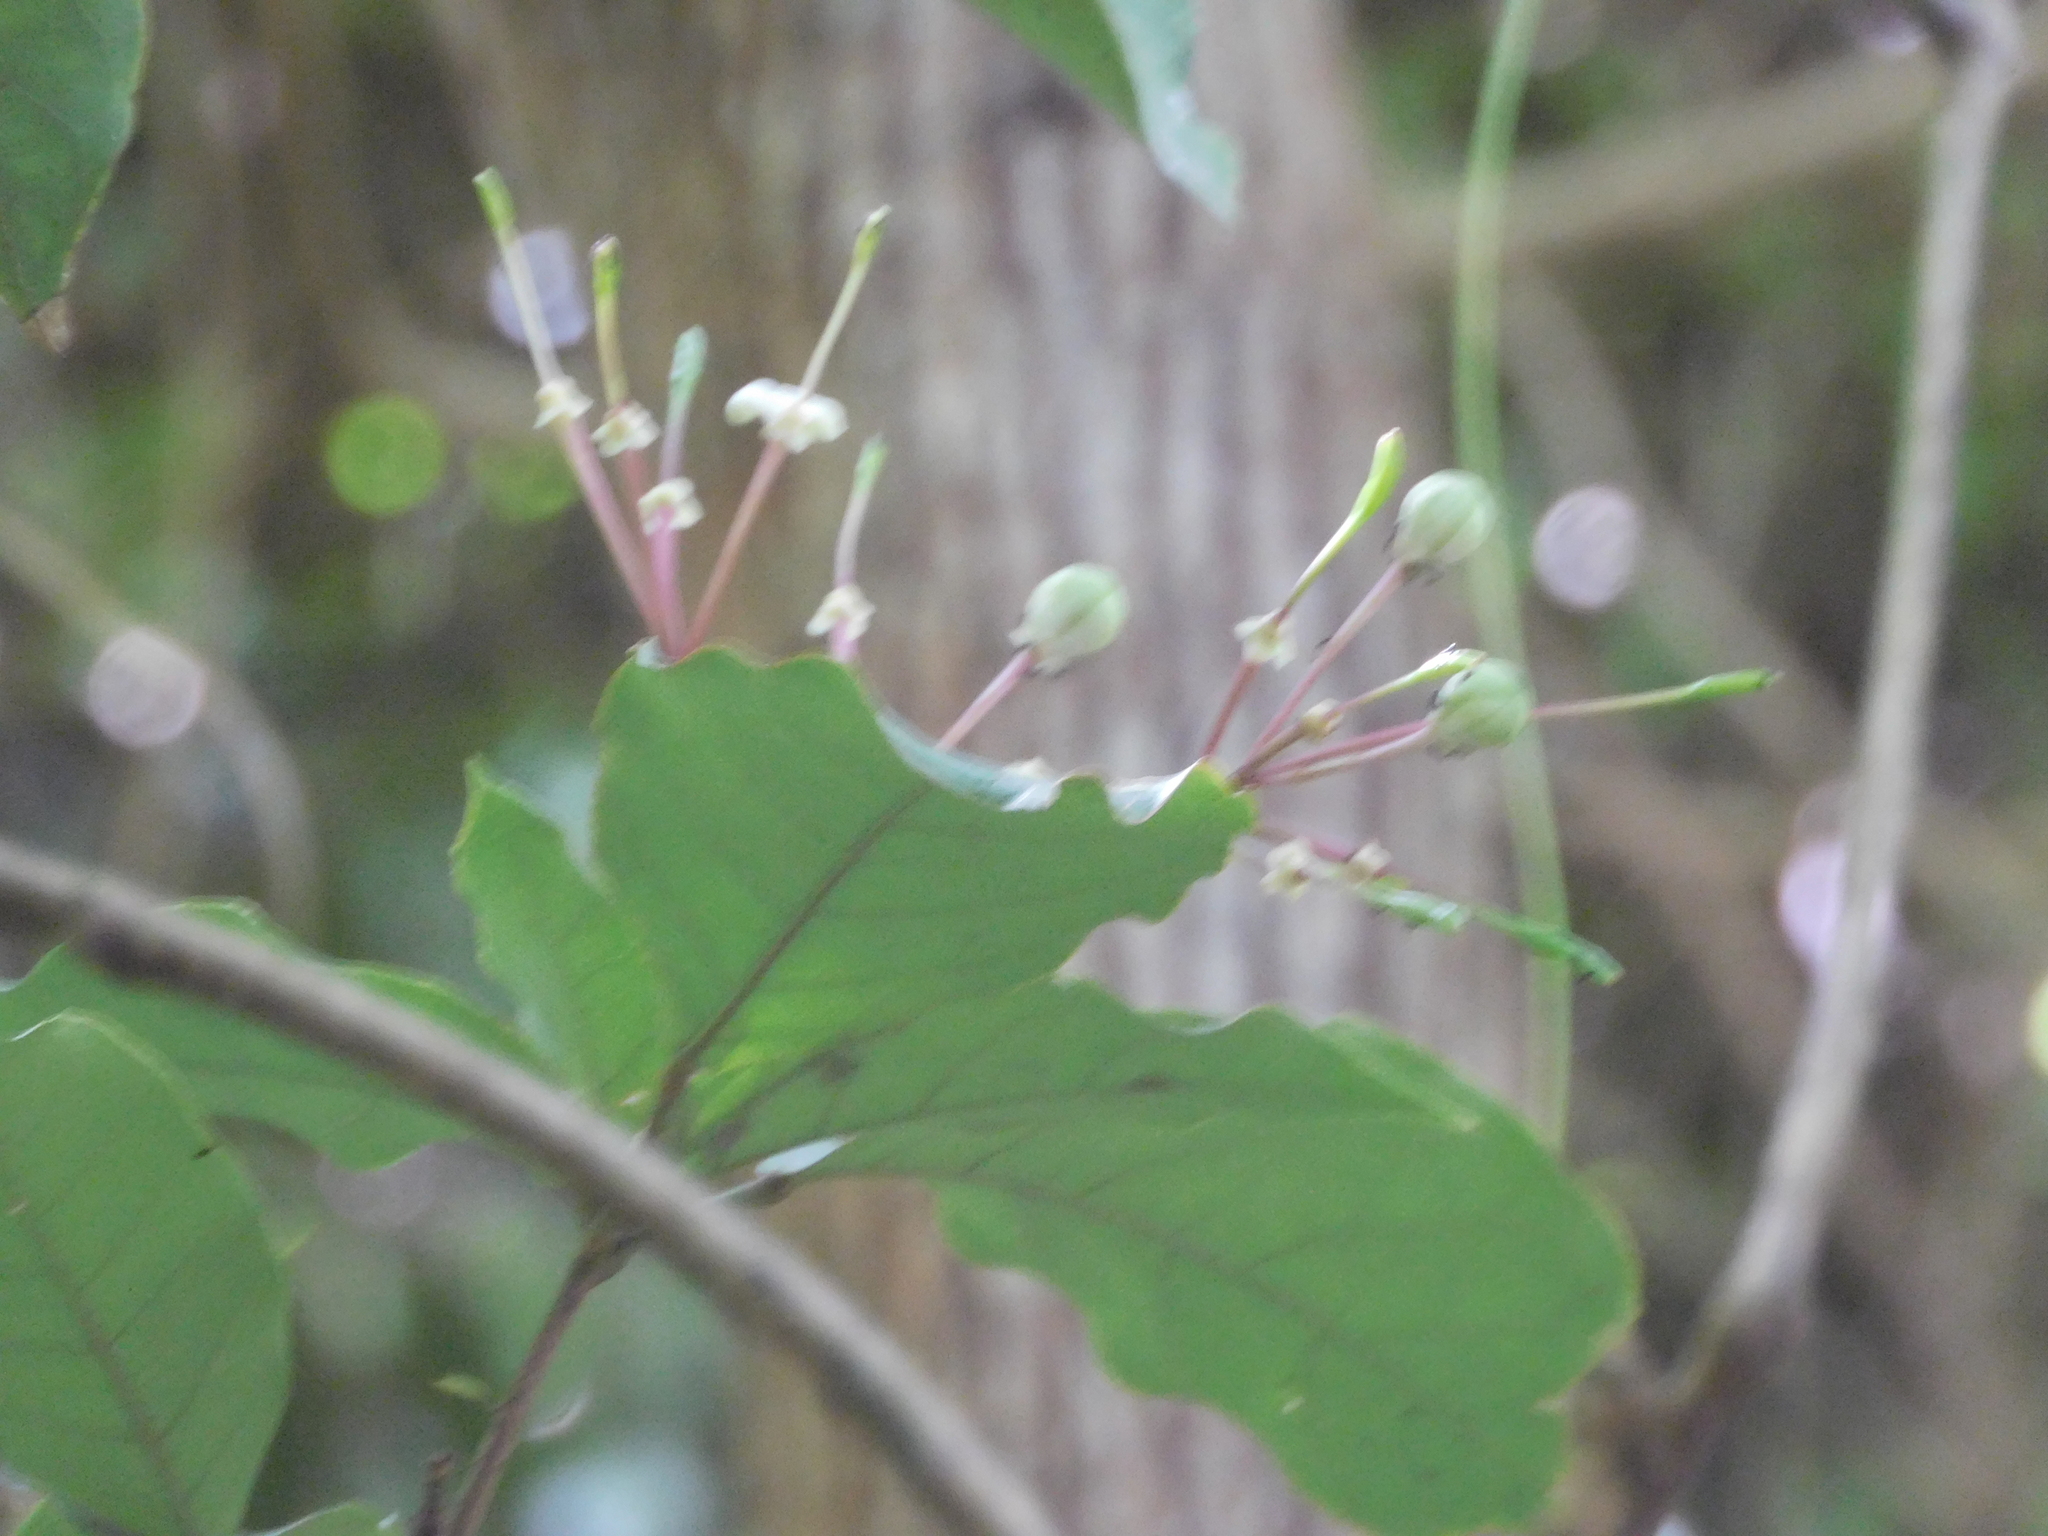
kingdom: Plantae
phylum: Tracheophyta
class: Magnoliopsida
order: Brassicales
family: Capparaceae
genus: Capparidastrum
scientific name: Capparidastrum frondosum
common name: Church blossom
